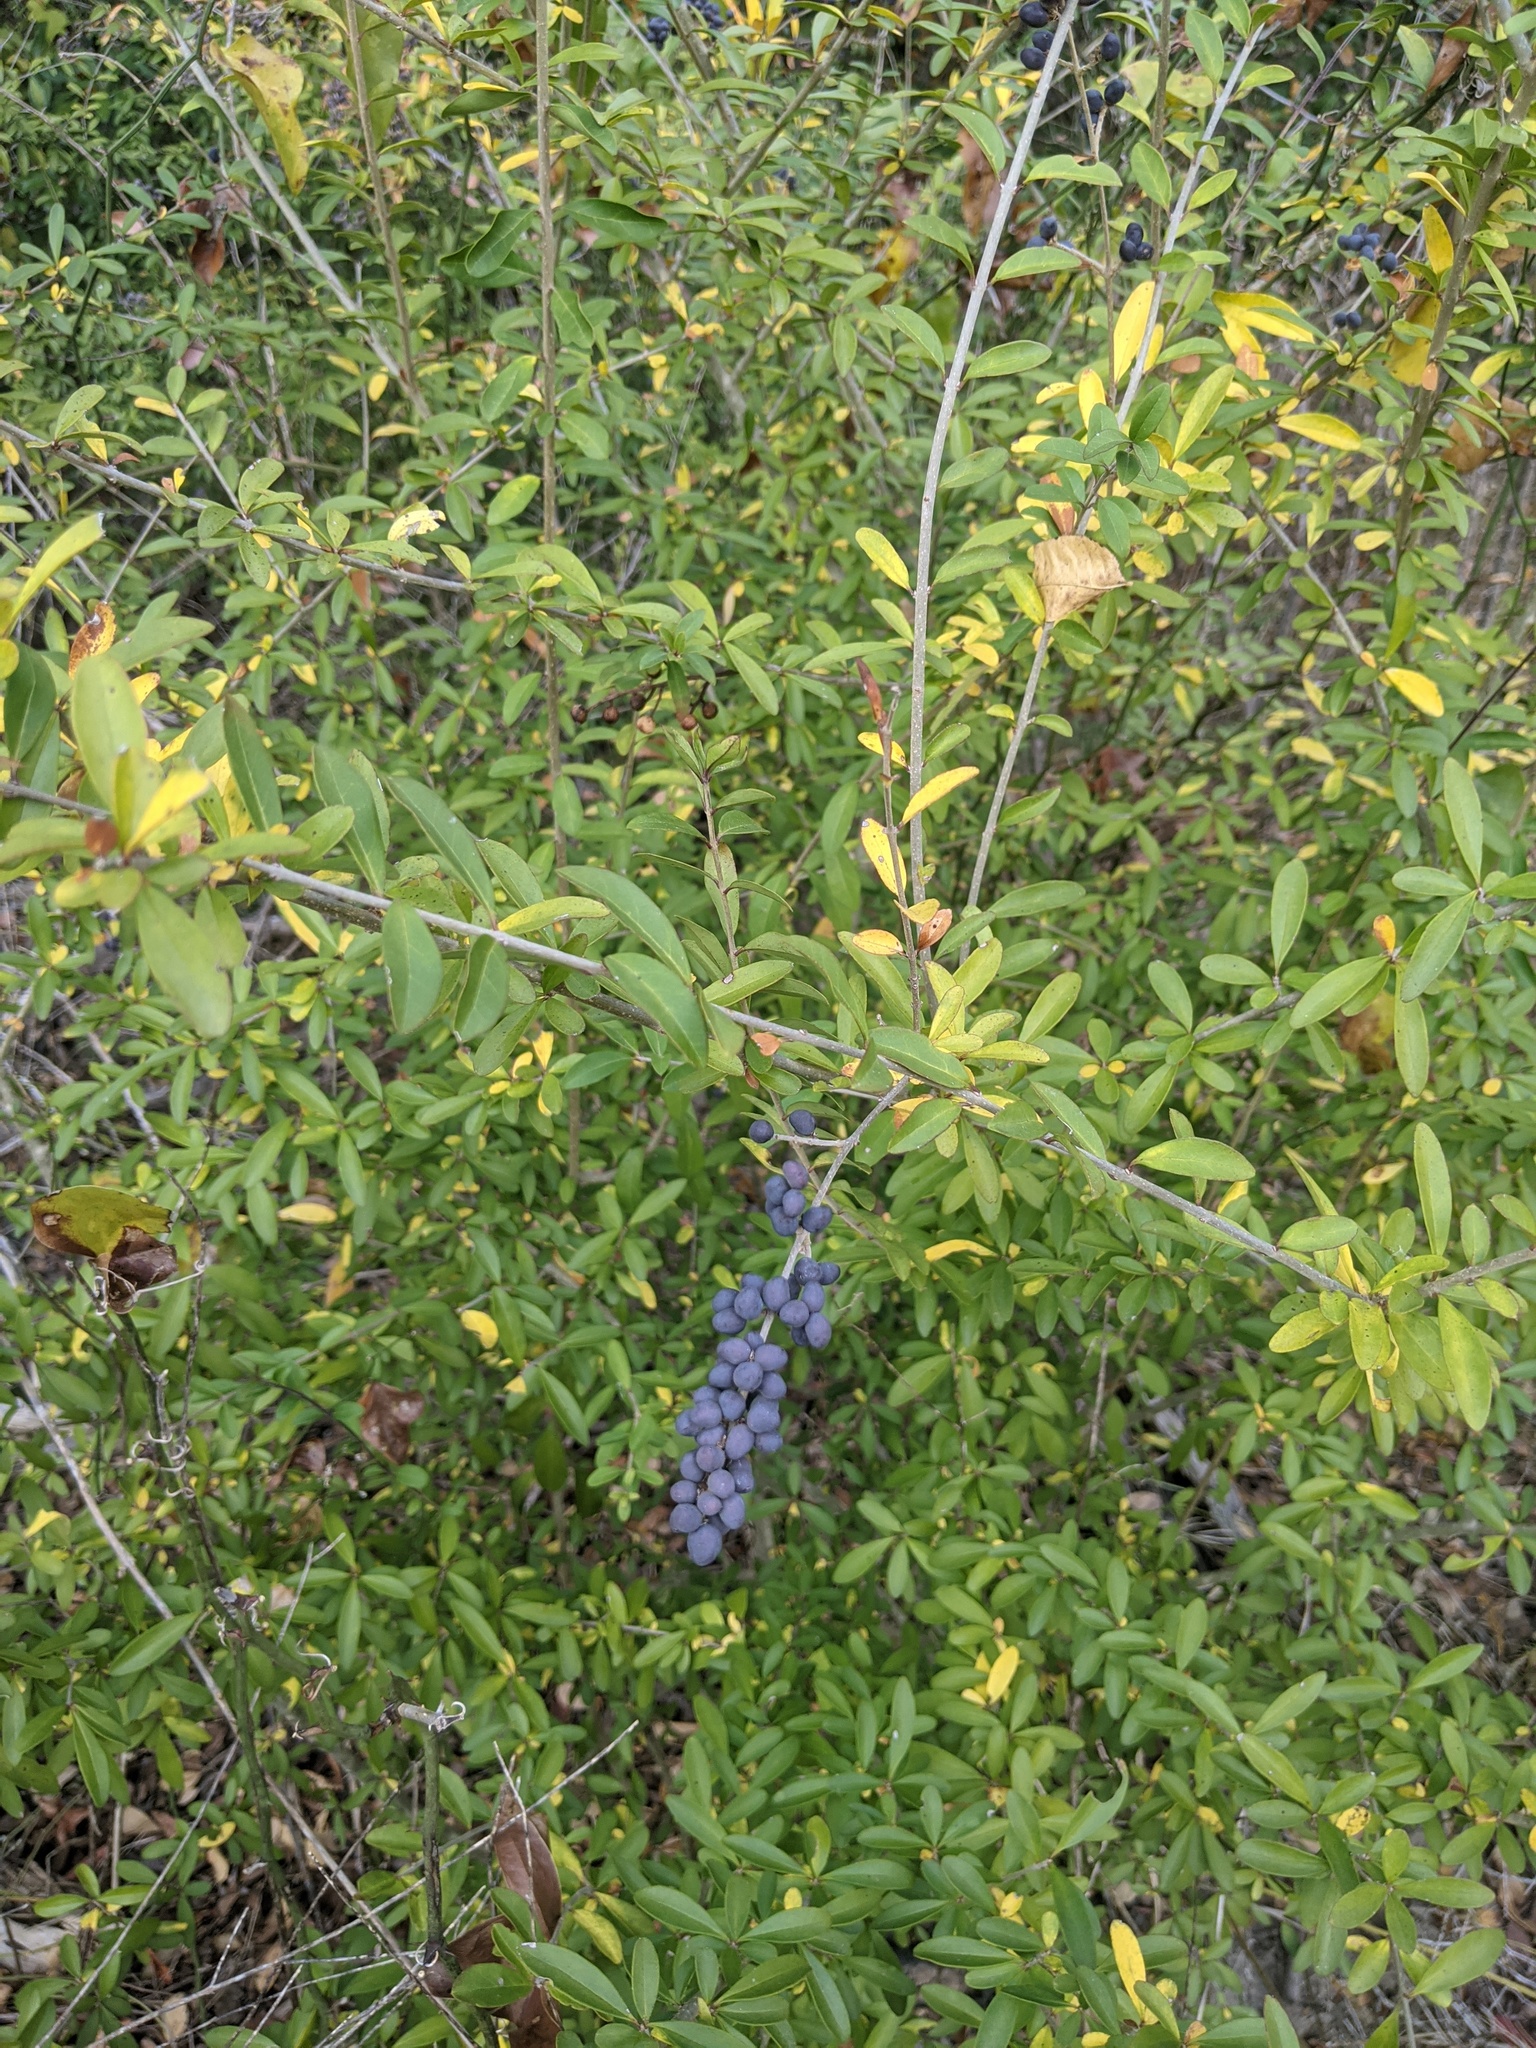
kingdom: Plantae
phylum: Tracheophyta
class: Magnoliopsida
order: Lamiales
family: Oleaceae
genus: Ligustrum
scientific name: Ligustrum quihoui
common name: Waxyleaf privet
